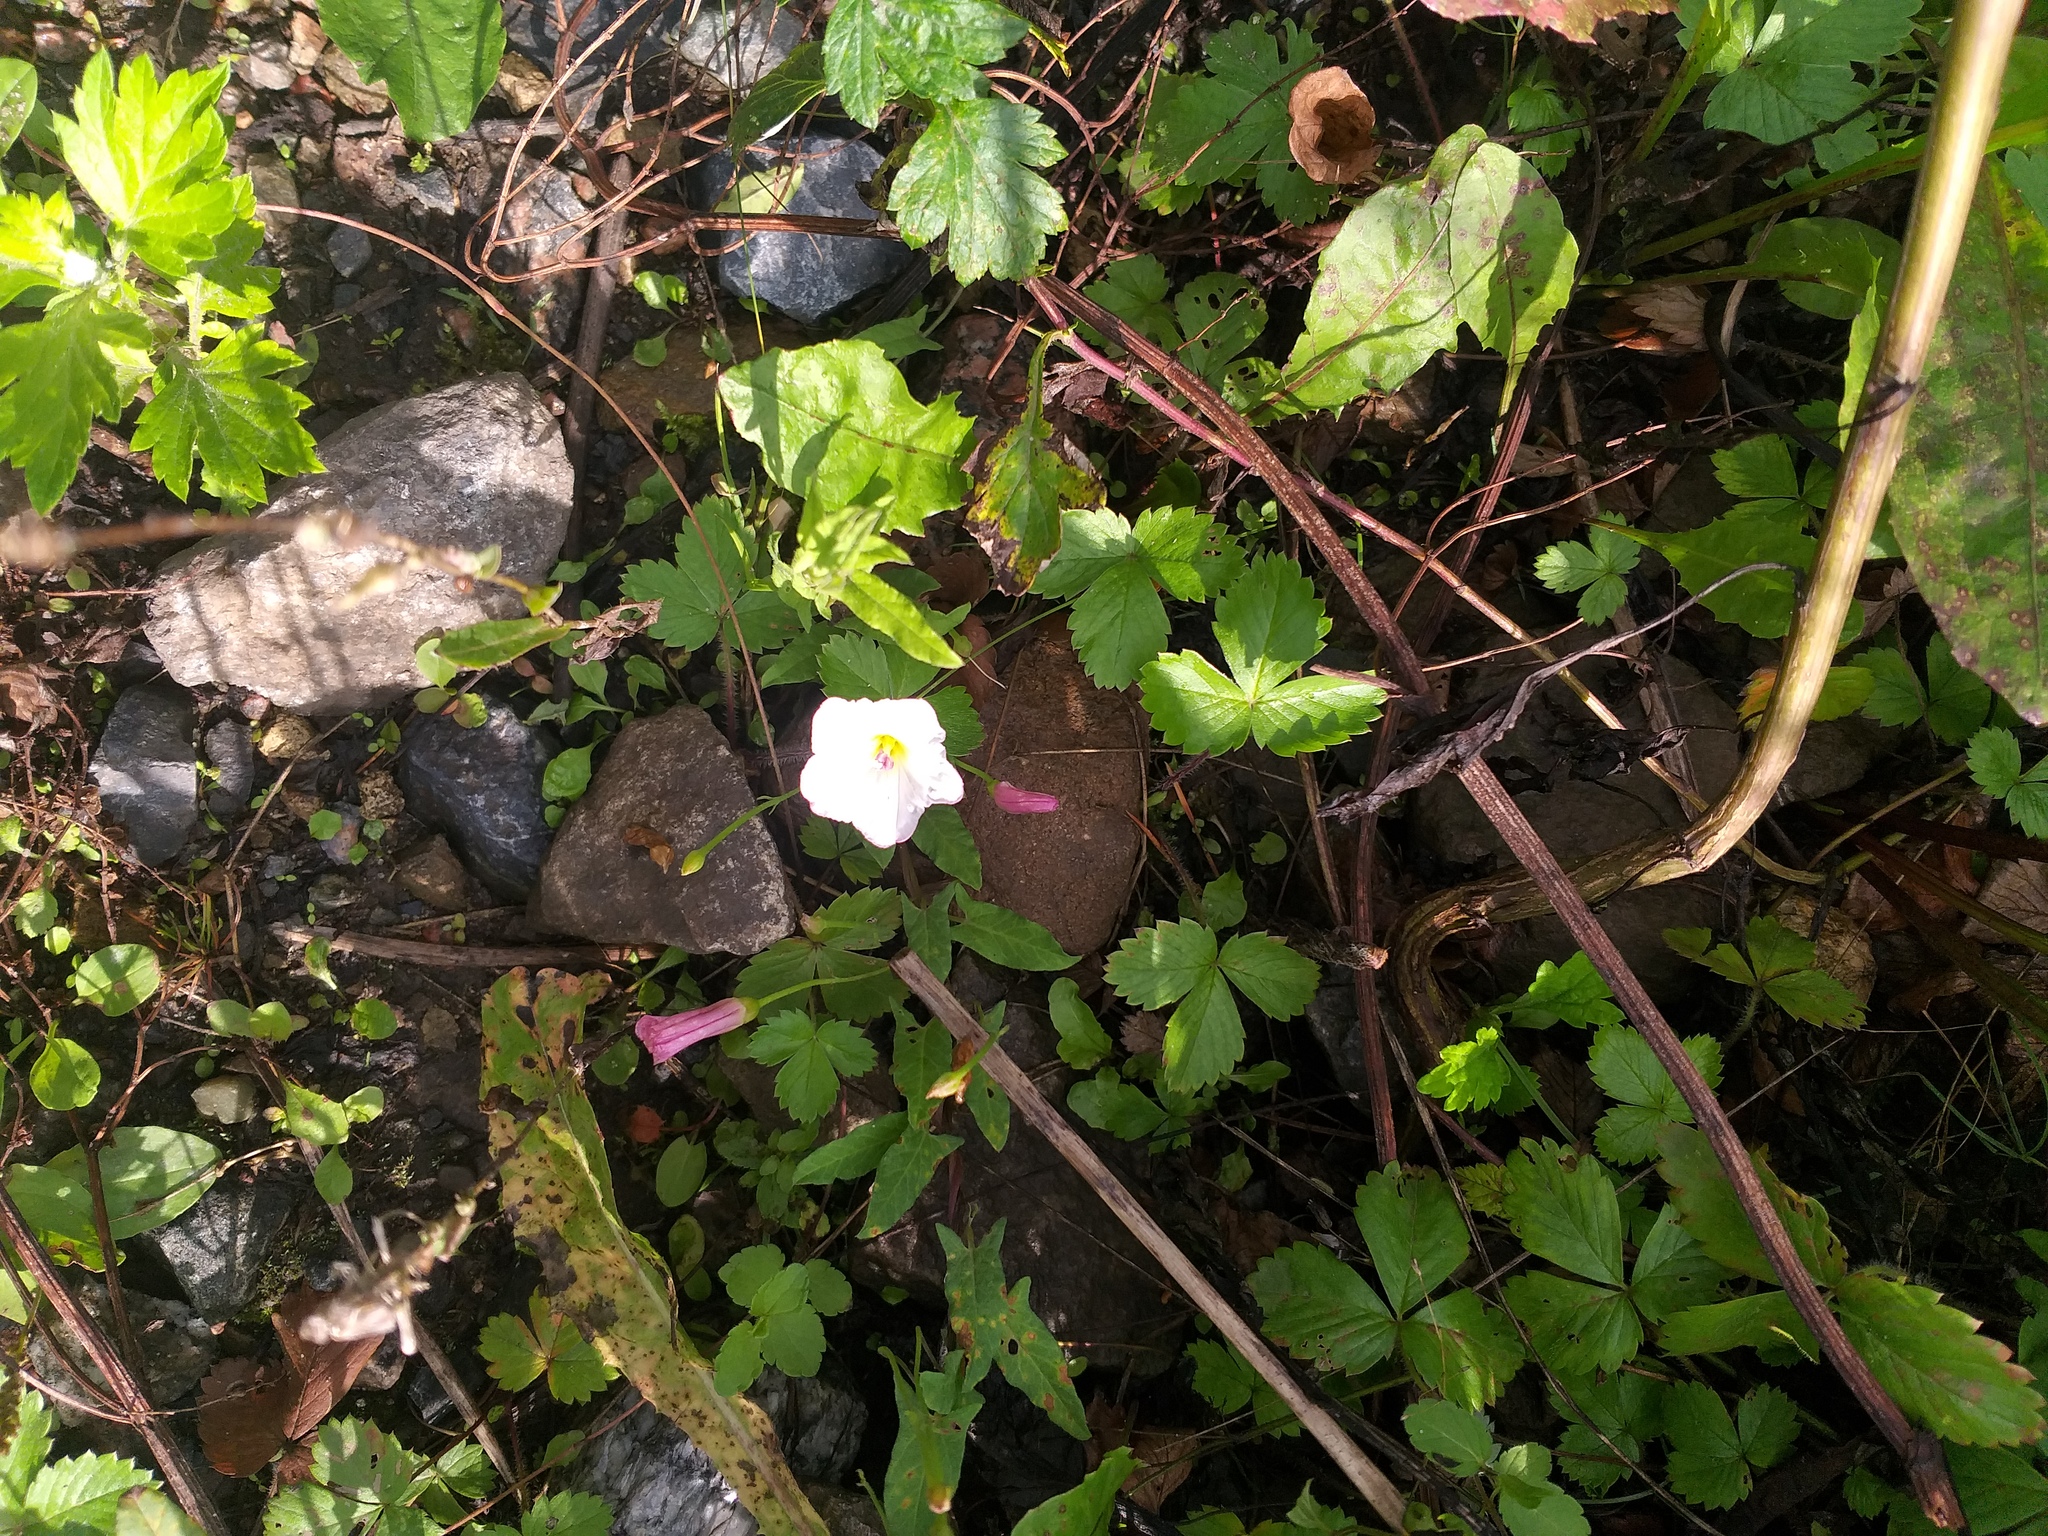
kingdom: Plantae
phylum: Tracheophyta
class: Magnoliopsida
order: Solanales
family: Convolvulaceae
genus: Convolvulus
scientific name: Convolvulus arvensis
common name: Field bindweed
